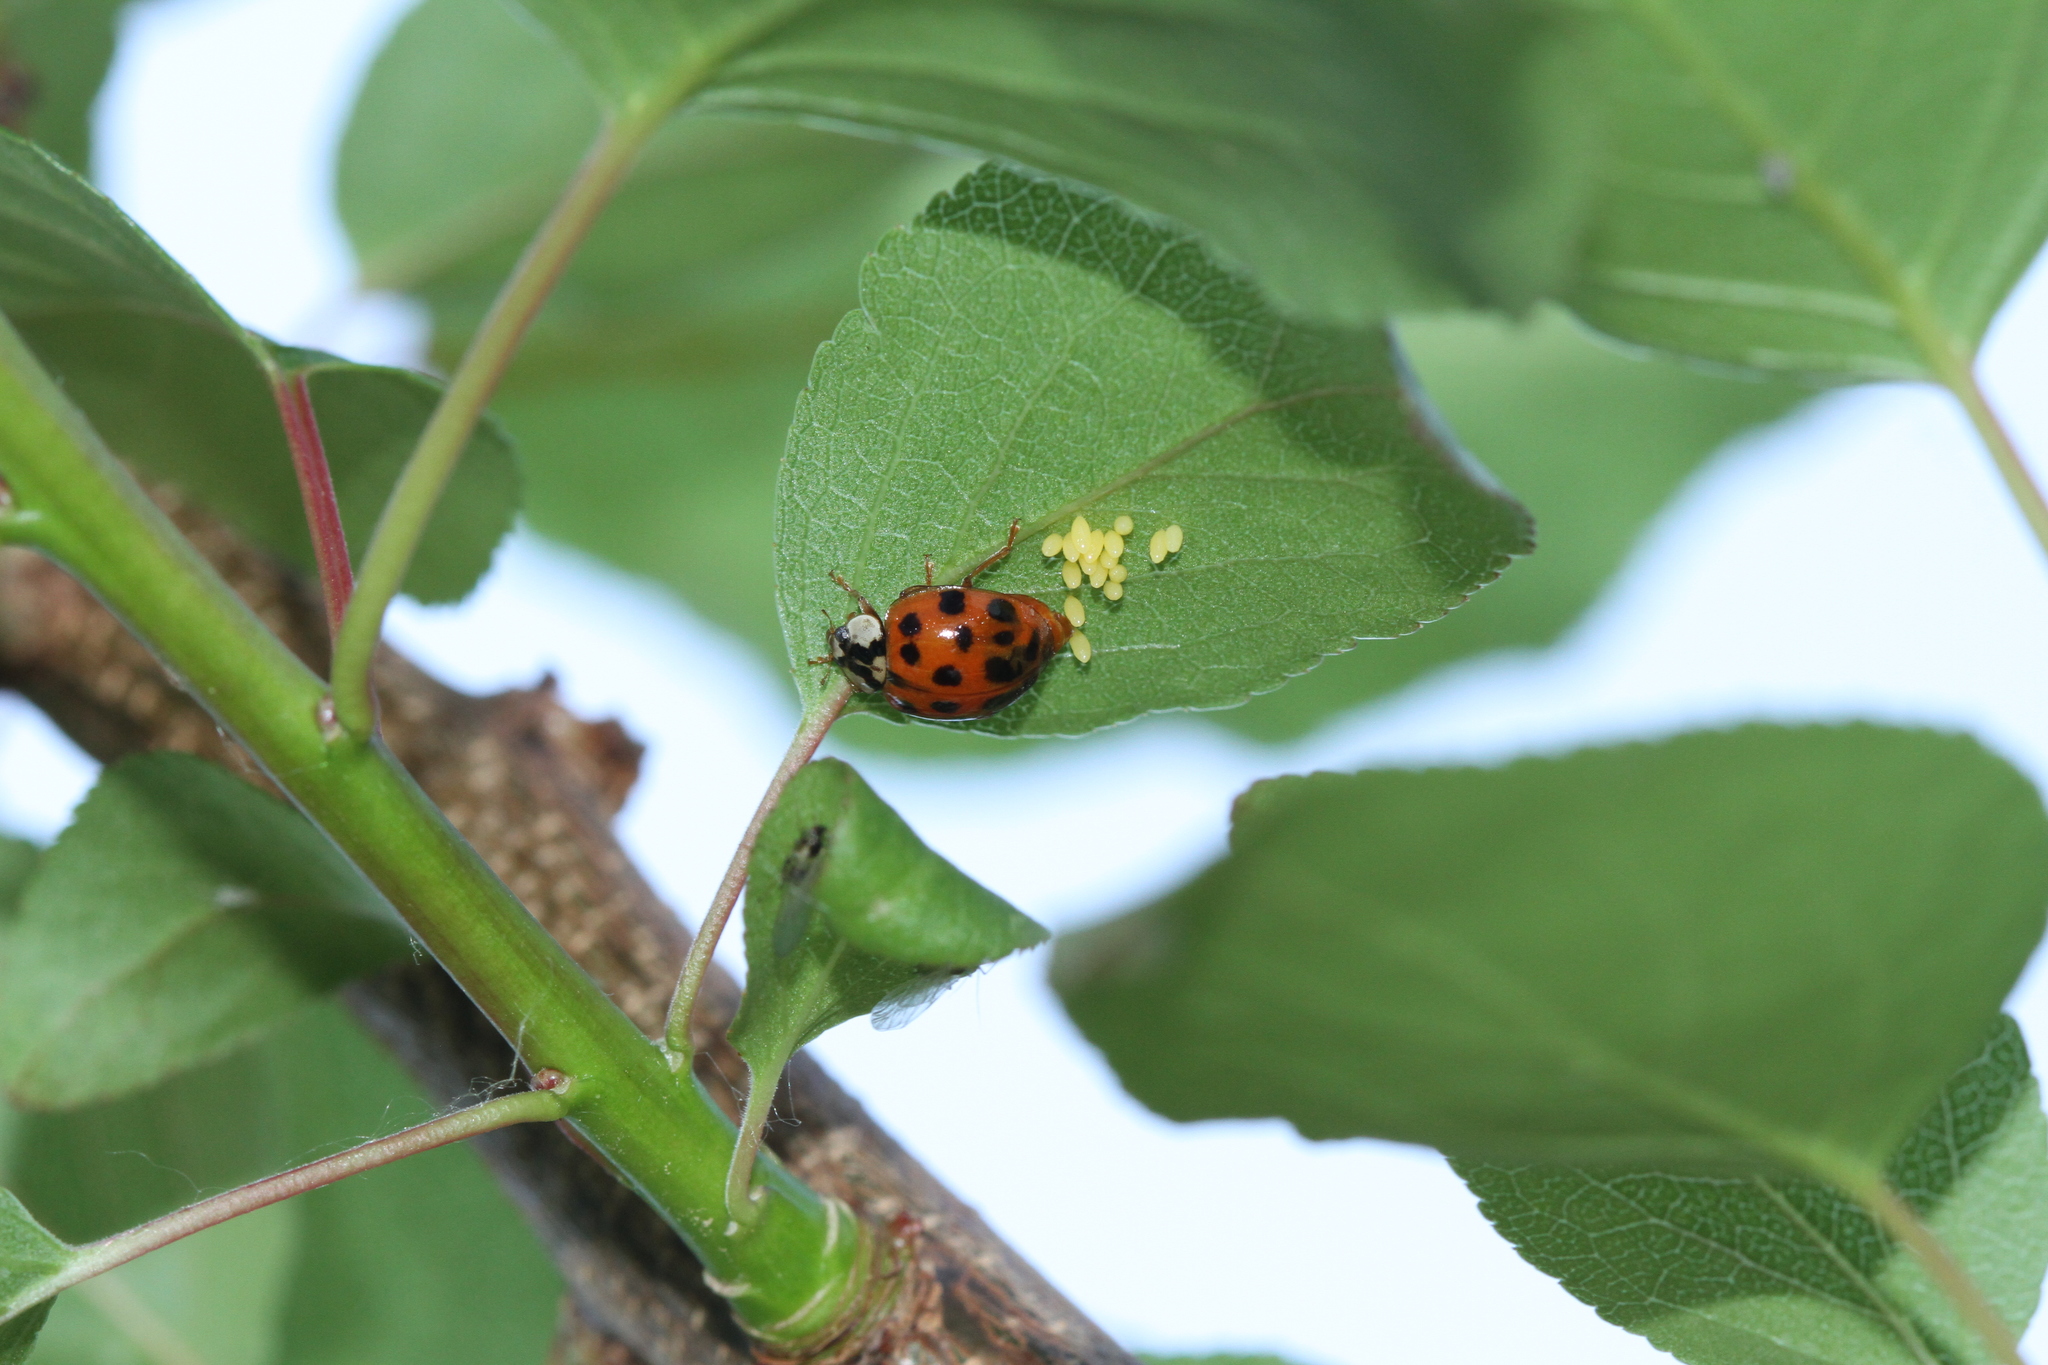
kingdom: Animalia
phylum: Arthropoda
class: Insecta
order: Coleoptera
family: Coccinellidae
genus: Harmonia
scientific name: Harmonia axyridis
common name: Harlequin ladybird
